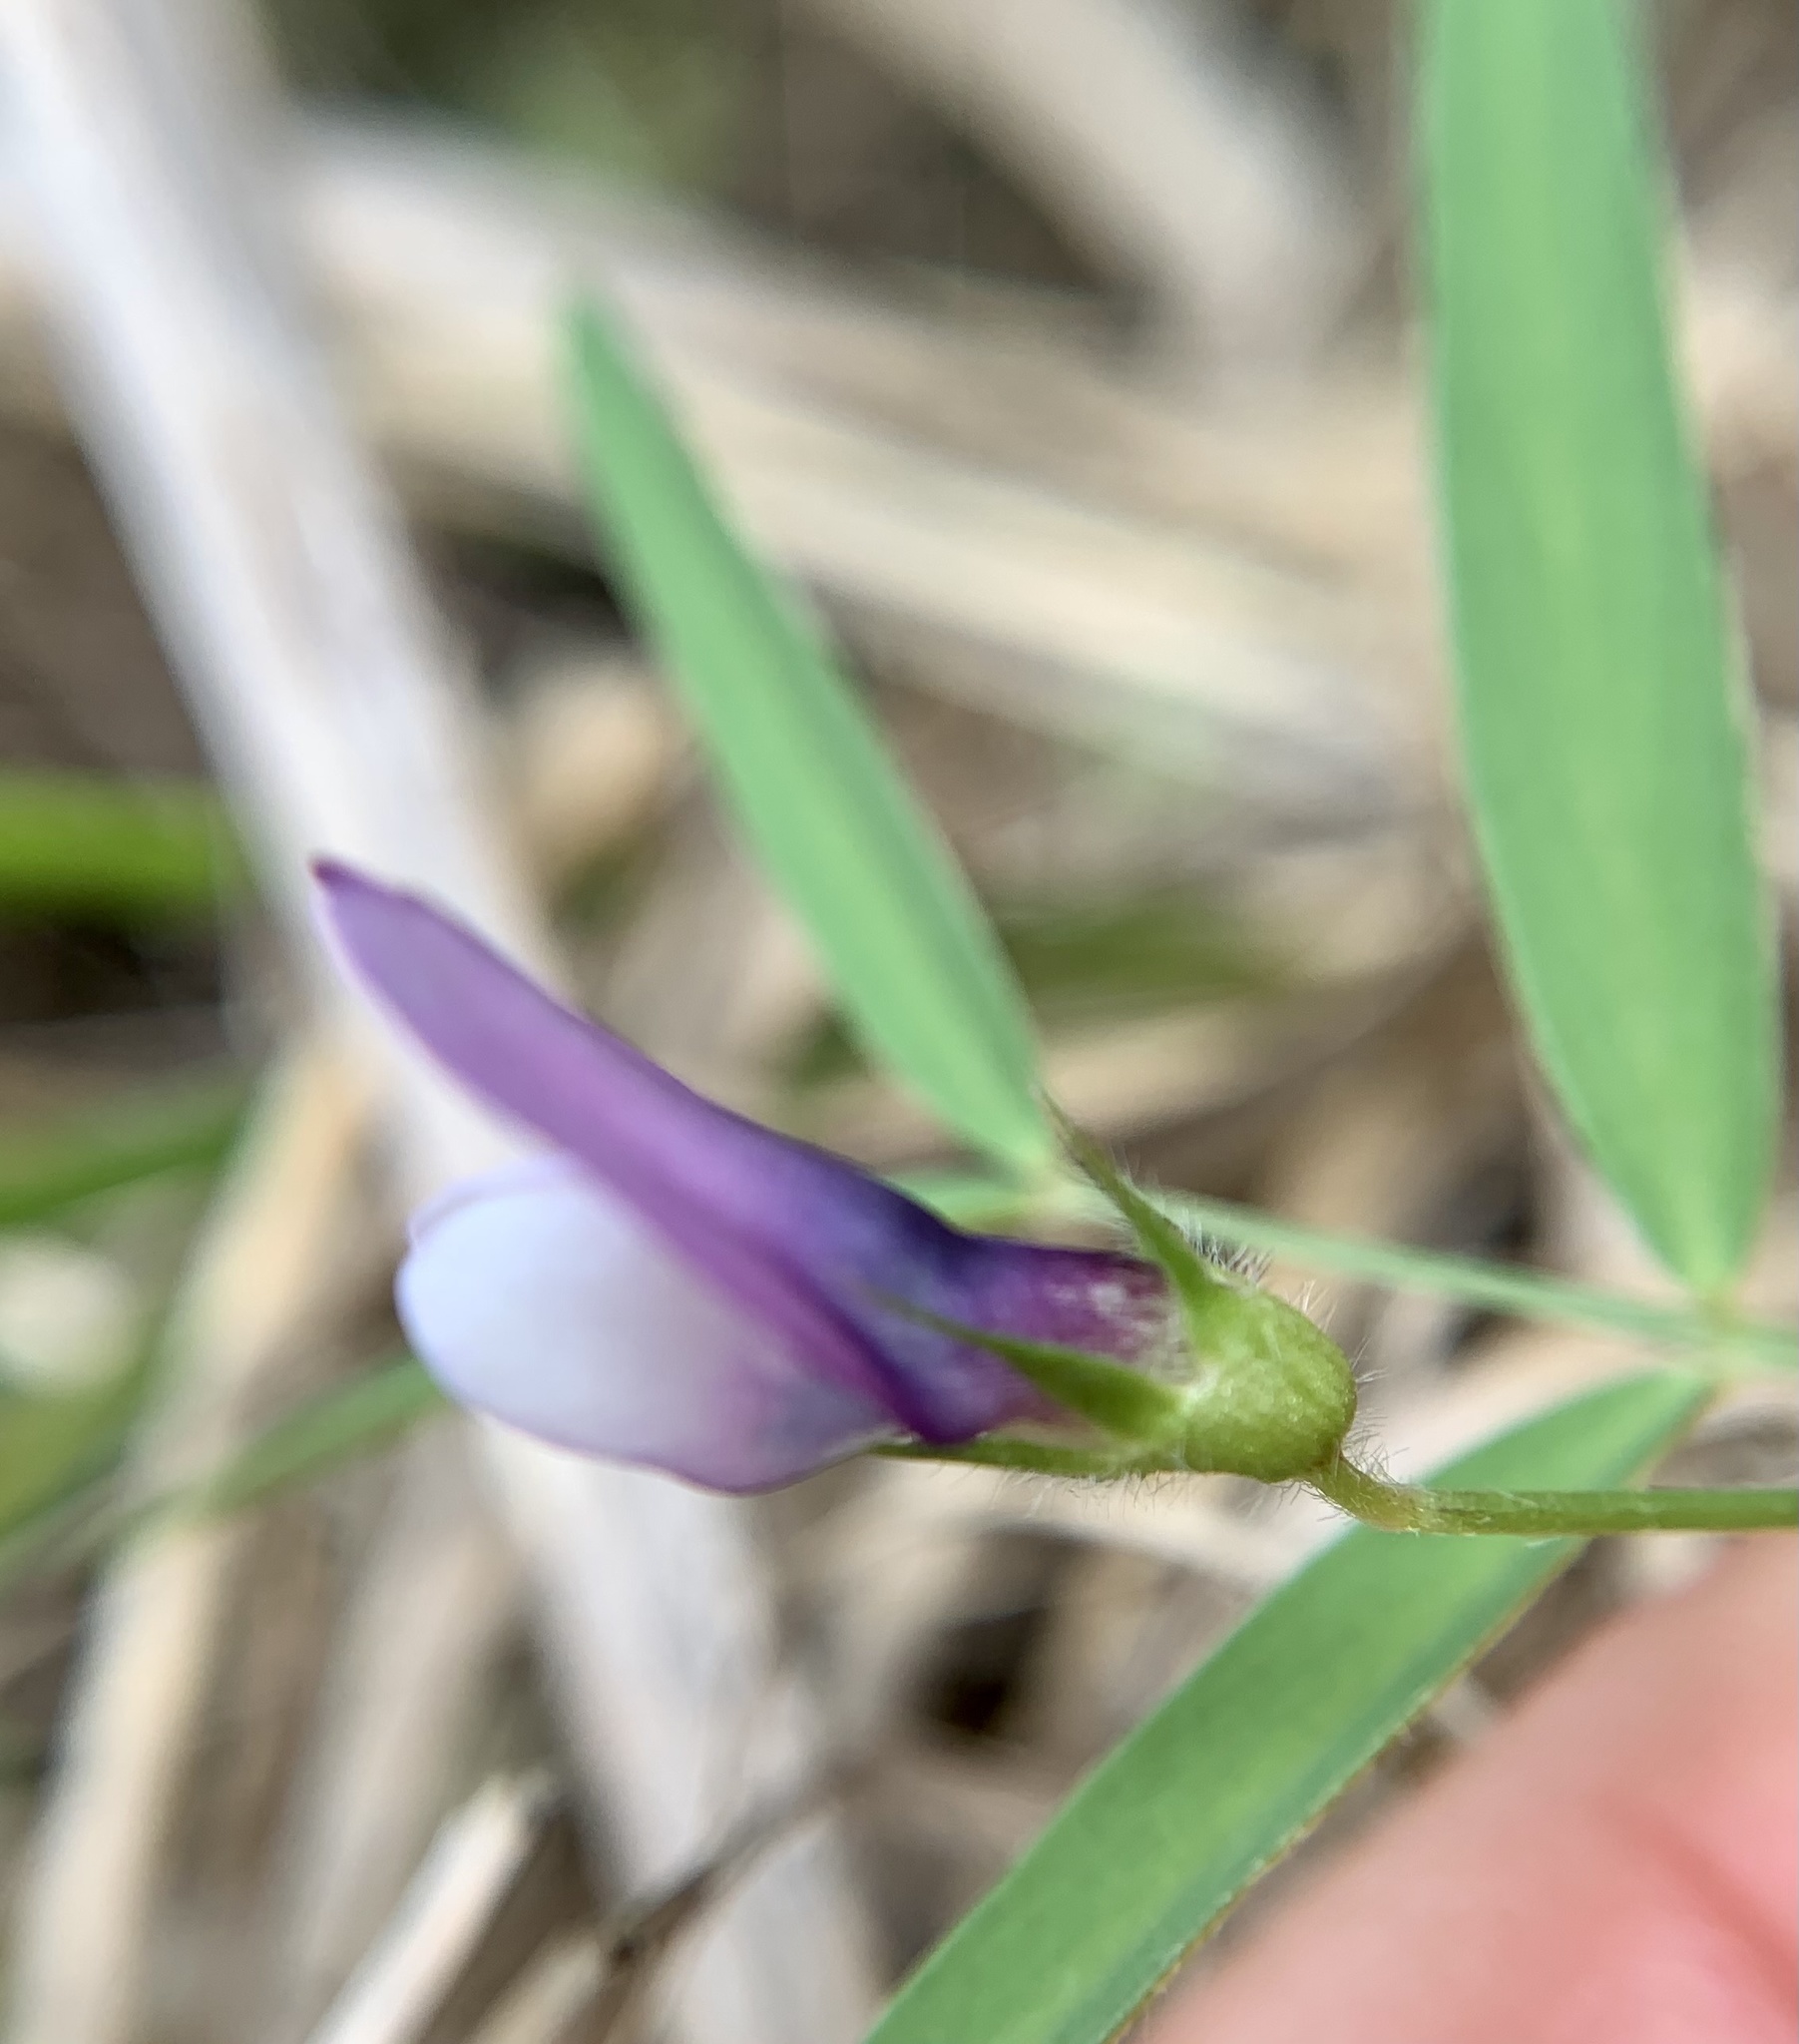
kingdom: Plantae
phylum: Tracheophyta
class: Magnoliopsida
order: Fabales
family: Fabaceae
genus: Vicia
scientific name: Vicia bithynica
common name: Bithynian vetch
